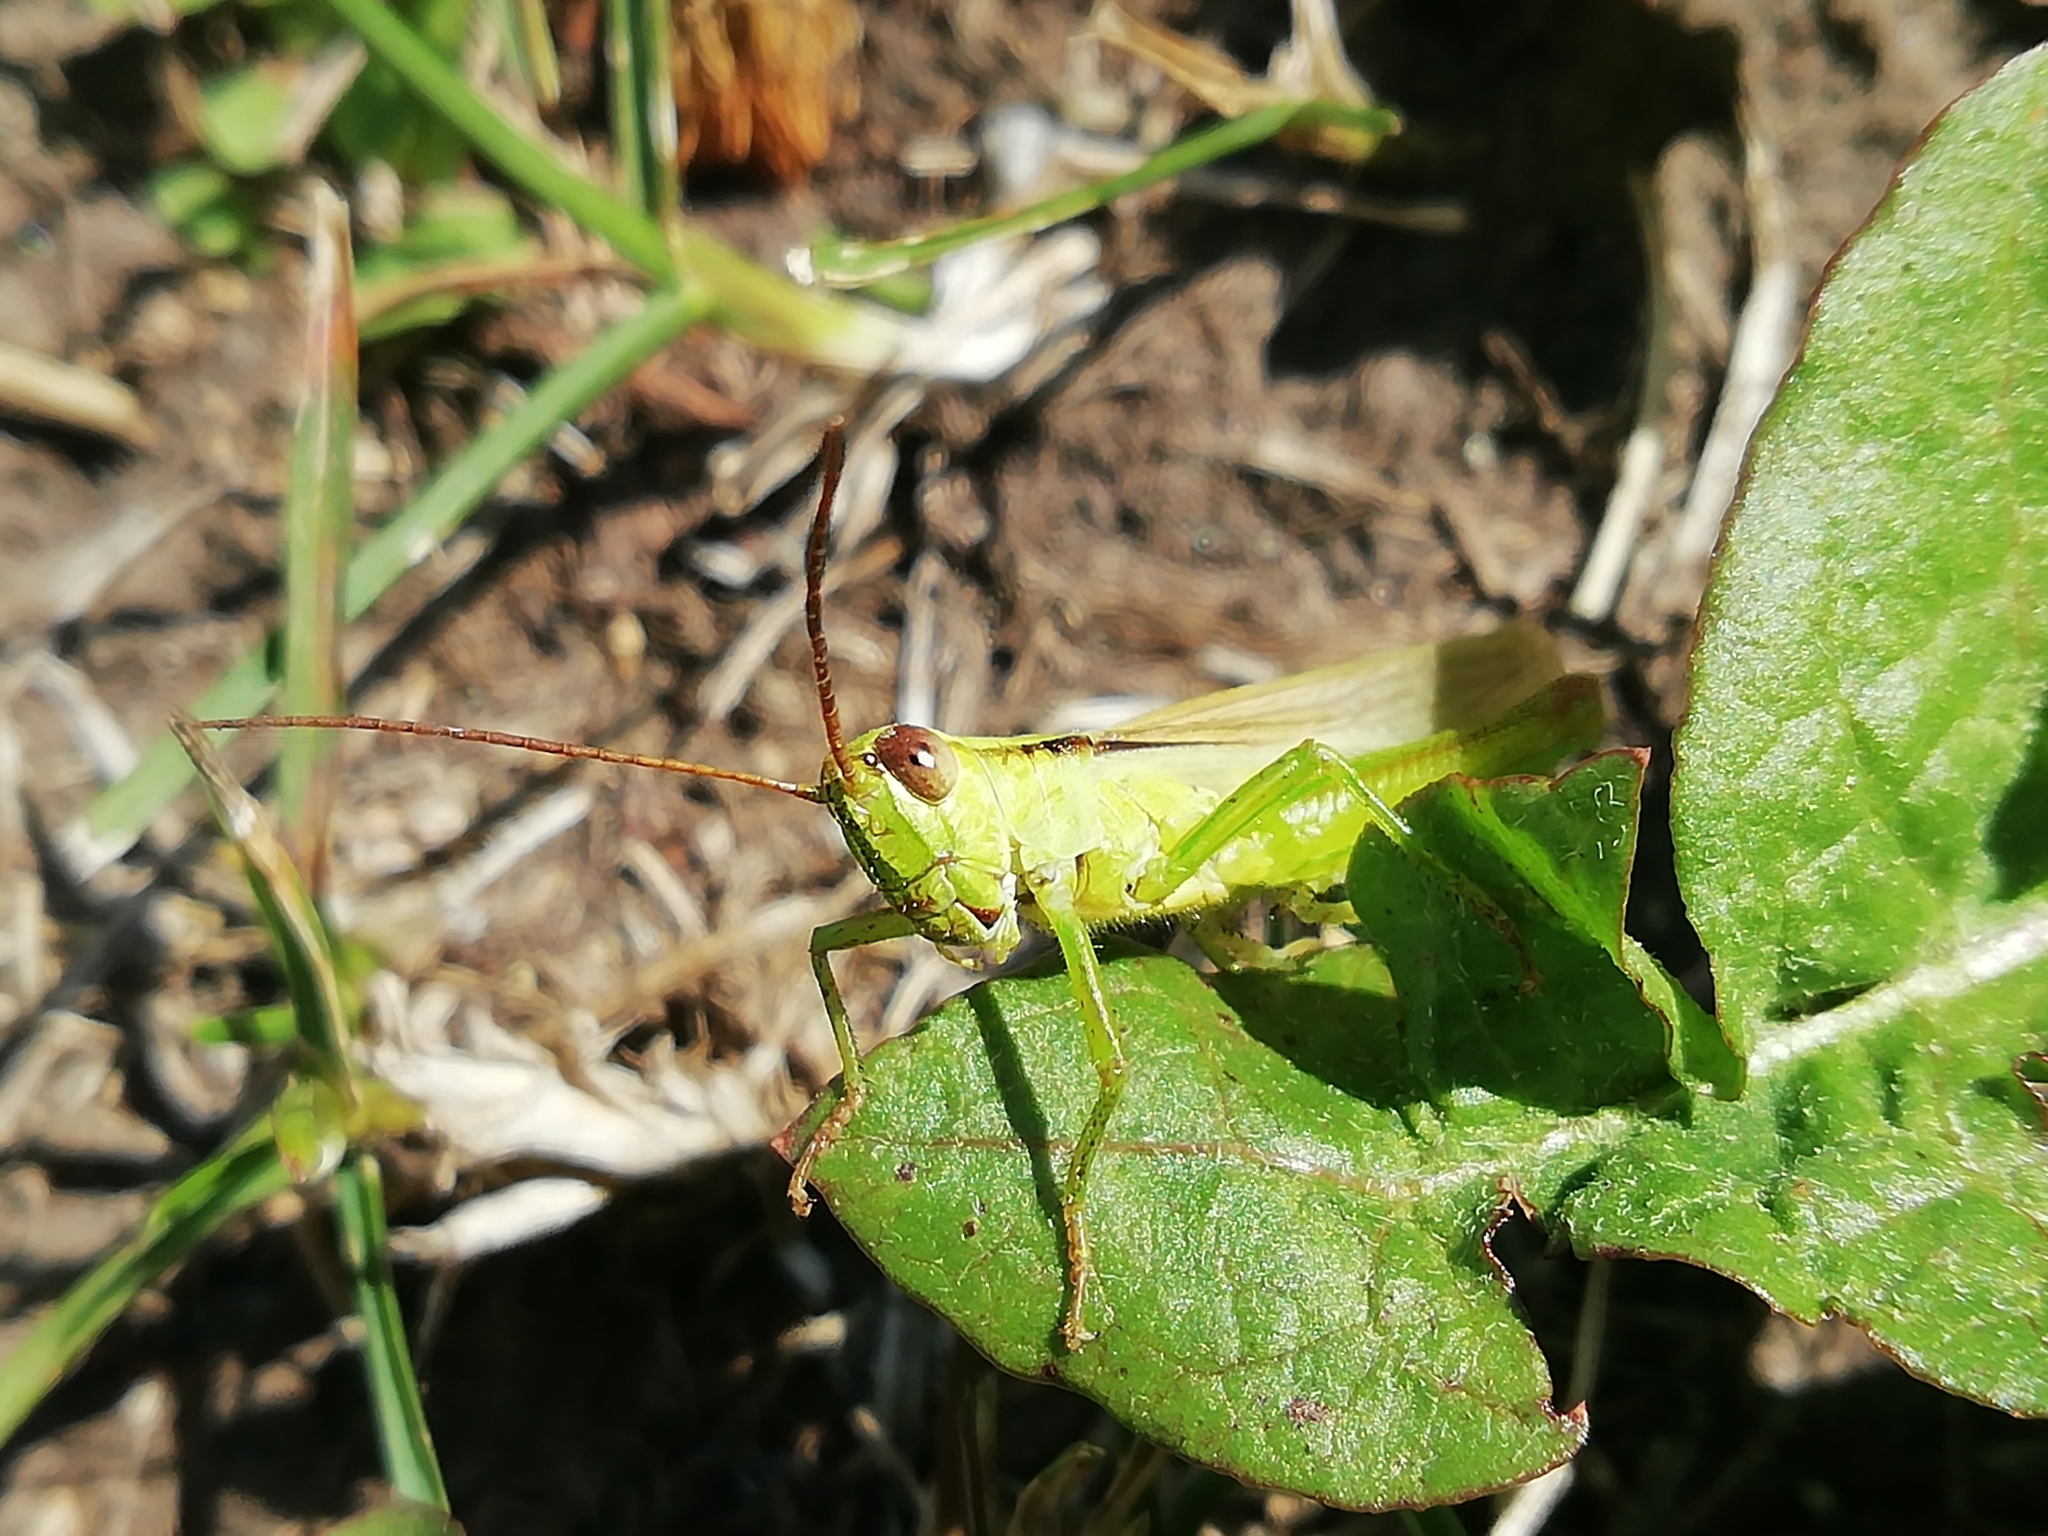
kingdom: Animalia
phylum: Arthropoda
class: Insecta
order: Orthoptera
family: Acrididae
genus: Mecostethus
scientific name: Mecostethus parapleurus
